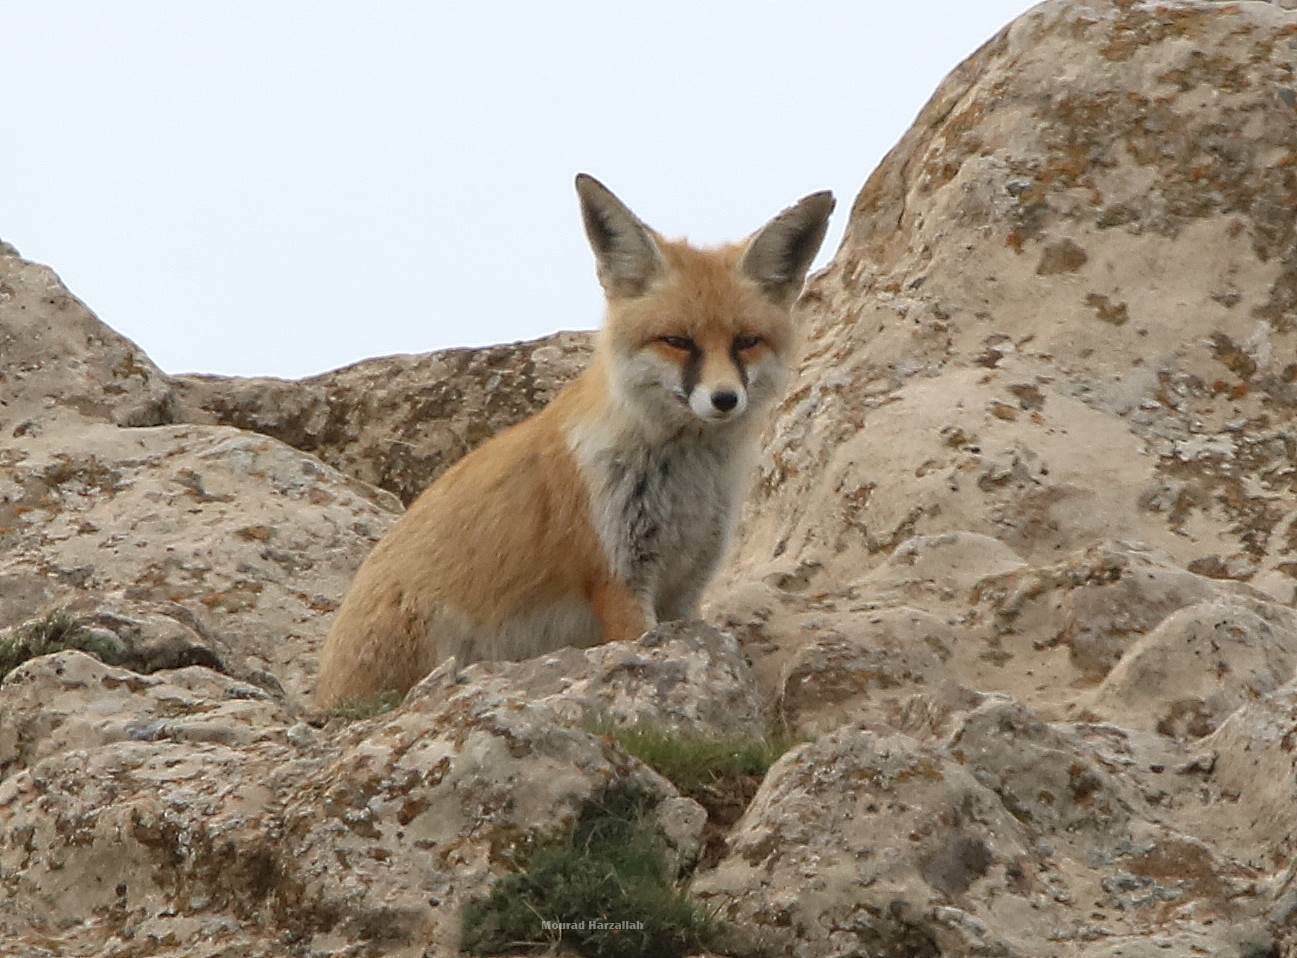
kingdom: Animalia
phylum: Chordata
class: Mammalia
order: Carnivora
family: Canidae
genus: Vulpes
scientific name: Vulpes vulpes
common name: Red fox
